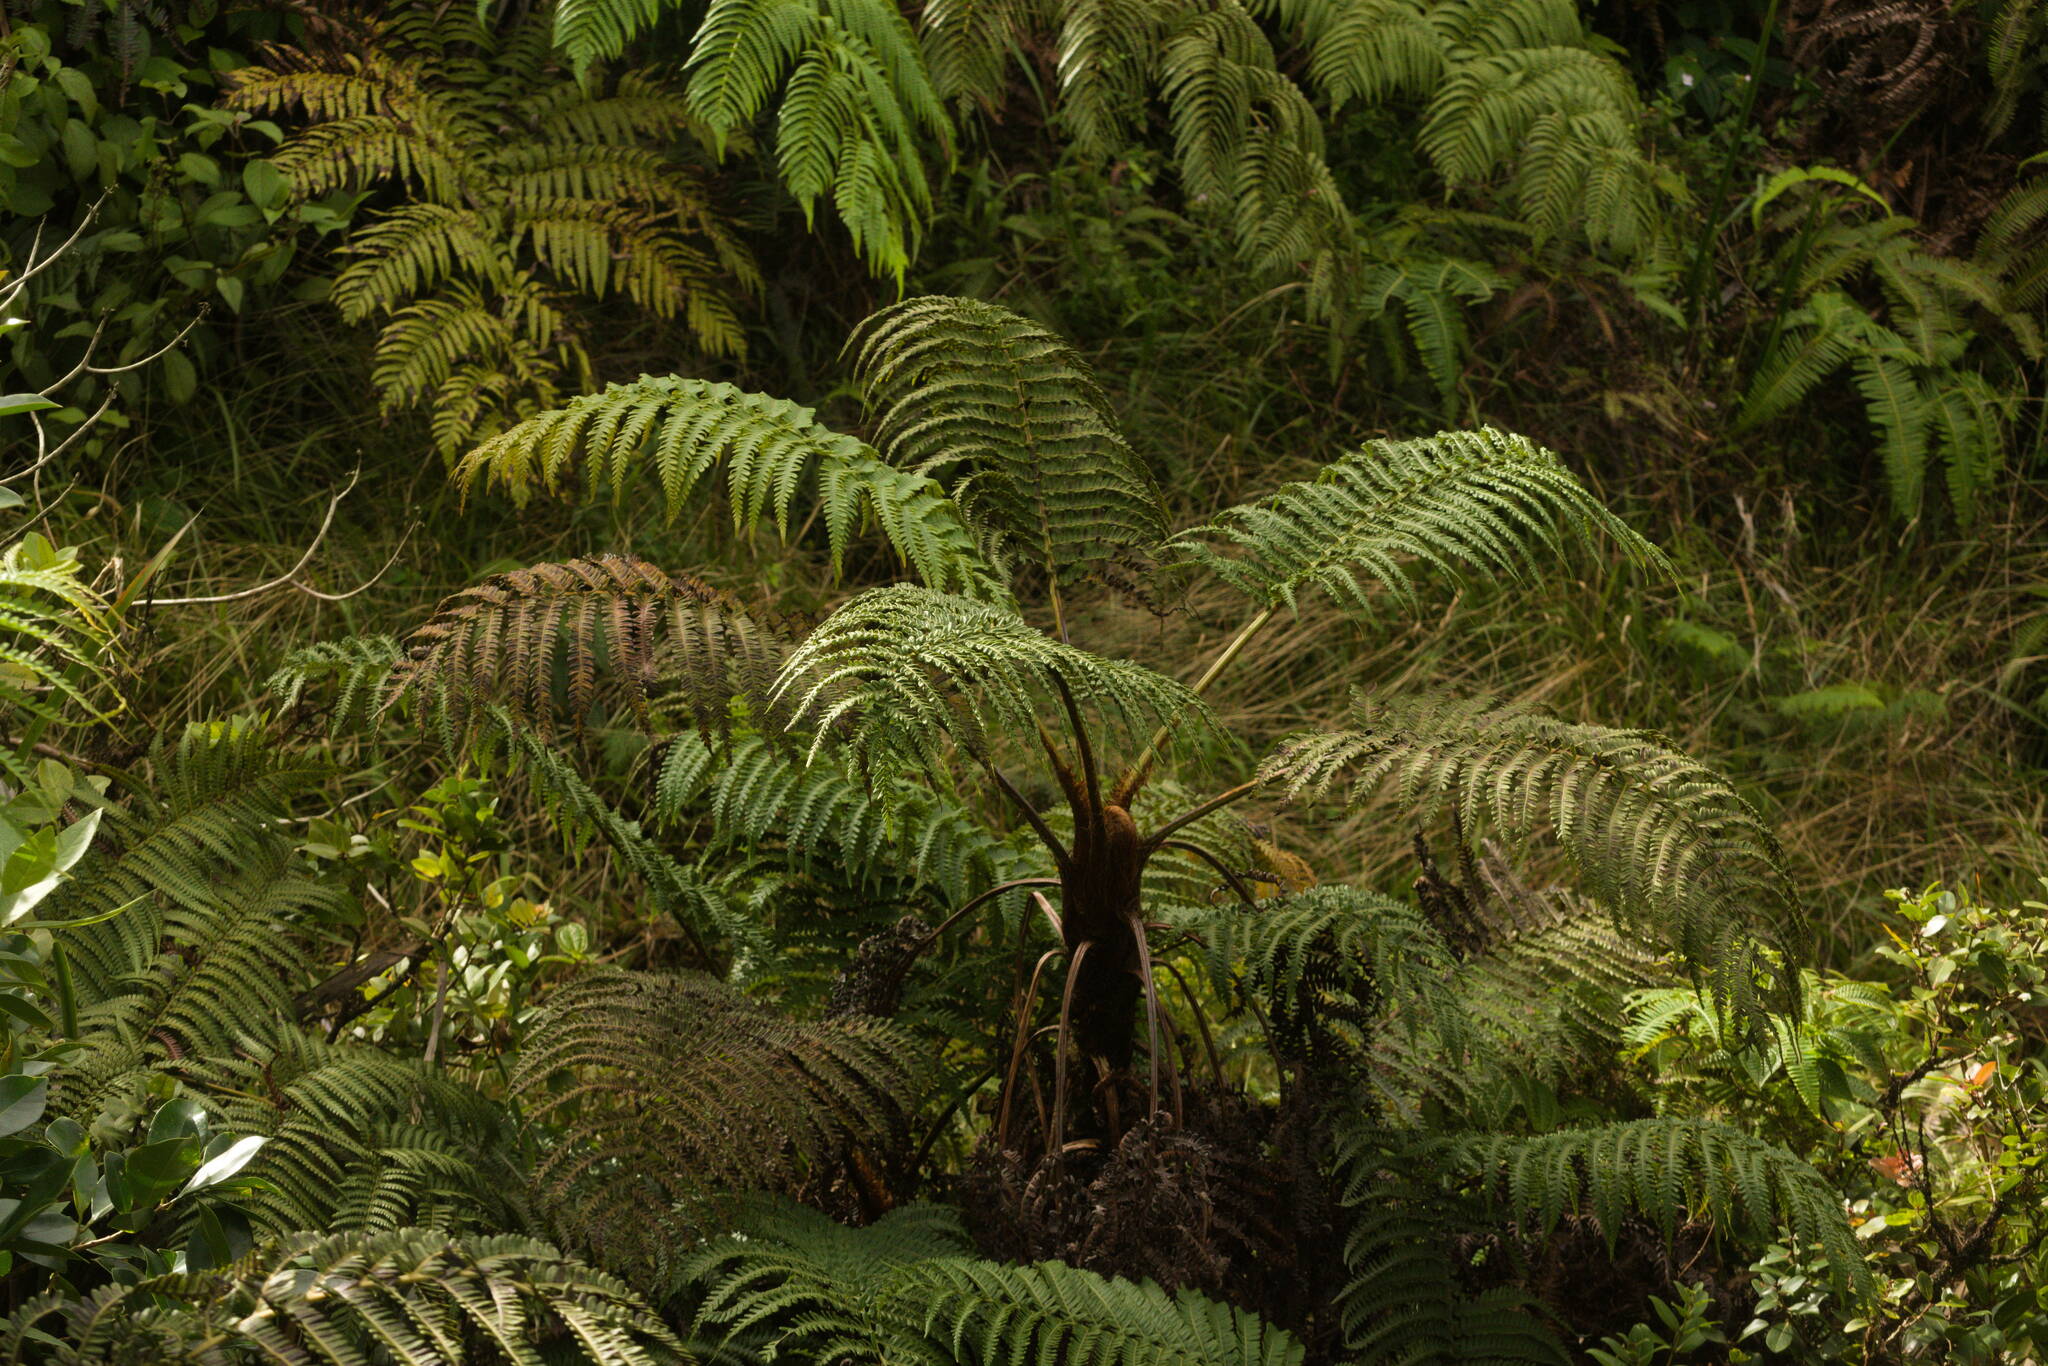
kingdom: Plantae
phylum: Tracheophyta
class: Polypodiopsida
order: Polypodiales
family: Blechnaceae
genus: Sadleria
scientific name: Sadleria pallida
